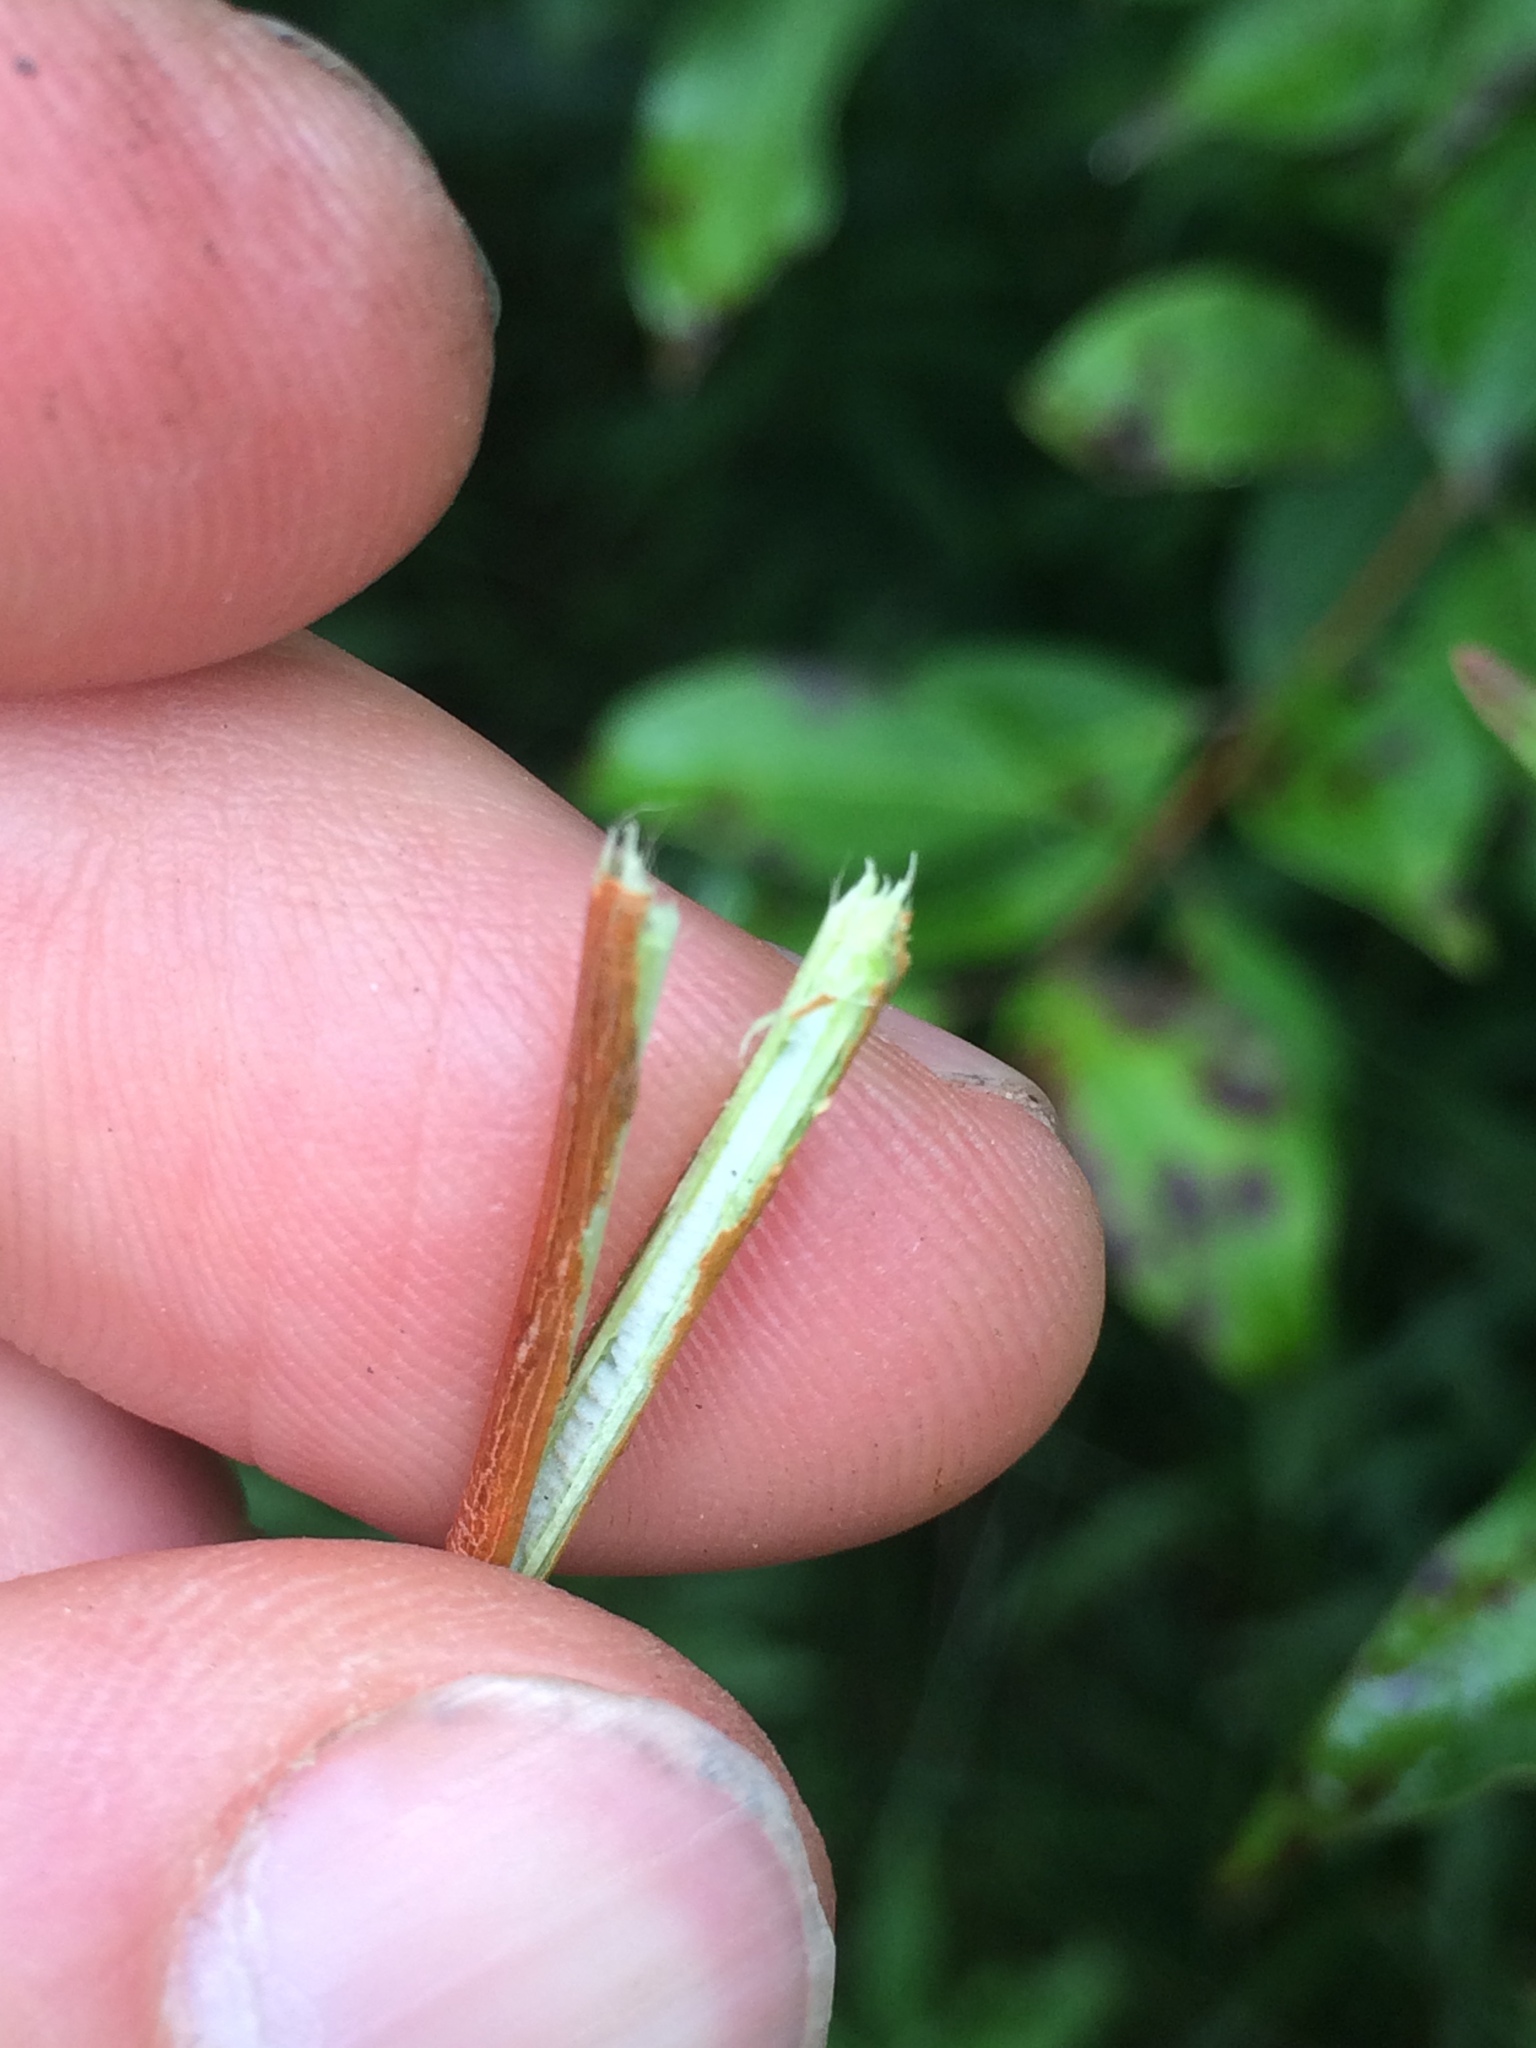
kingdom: Plantae
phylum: Tracheophyta
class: Magnoliopsida
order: Cornales
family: Cornaceae
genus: Cornus
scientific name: Cornus sericea
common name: Red-osier dogwood
